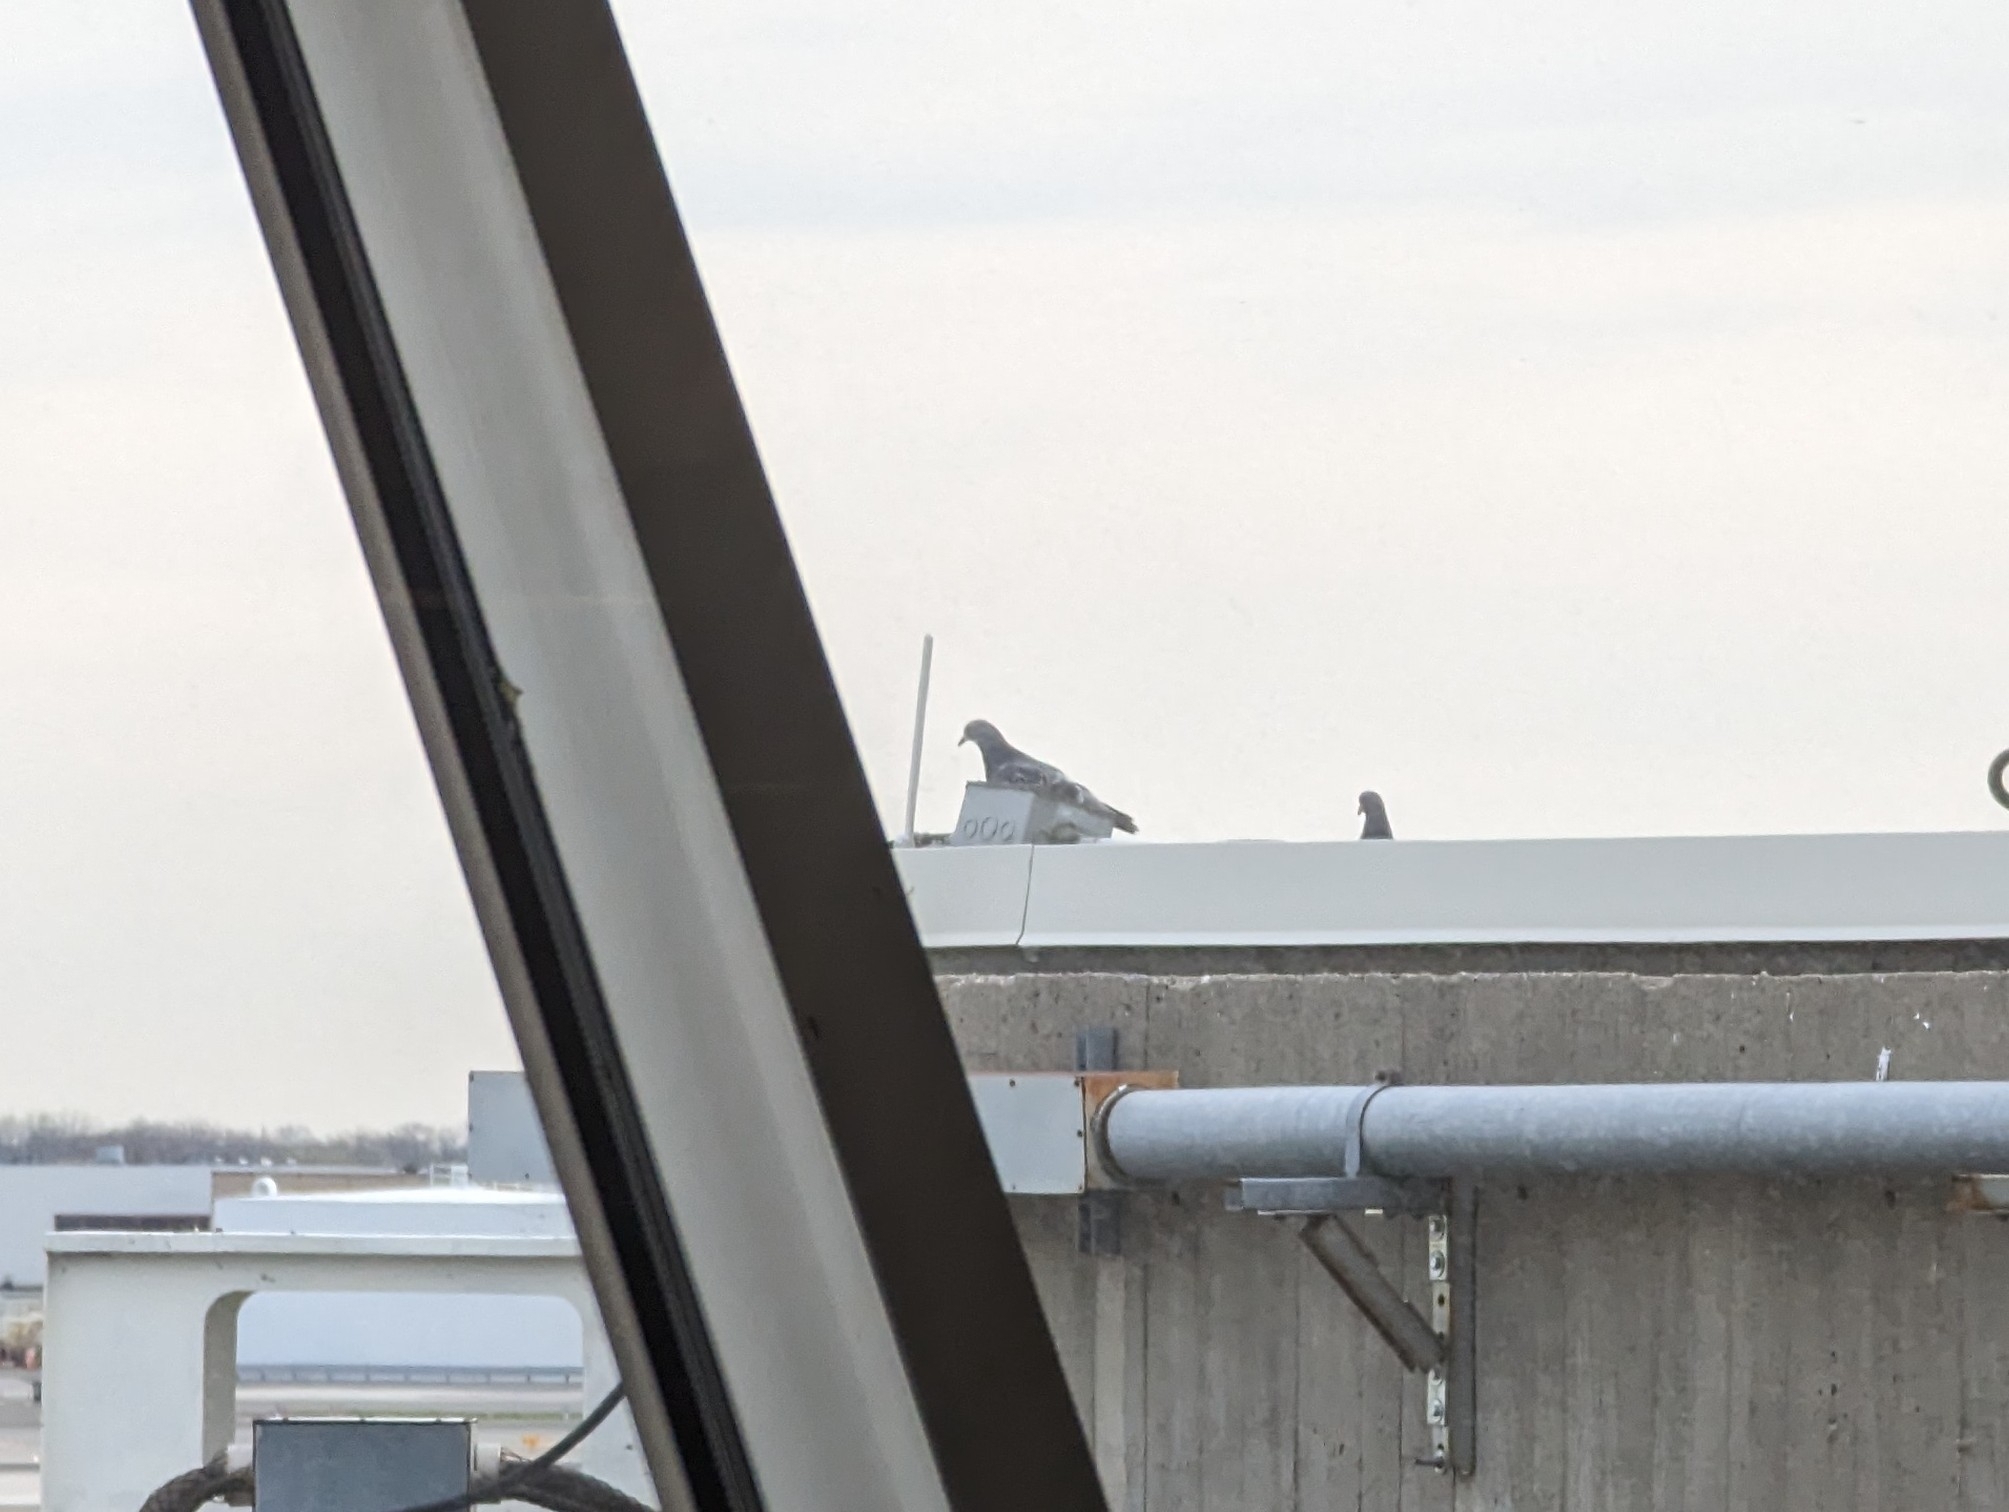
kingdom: Animalia
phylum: Chordata
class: Aves
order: Columbiformes
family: Columbidae
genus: Columba
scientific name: Columba livia
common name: Rock pigeon
